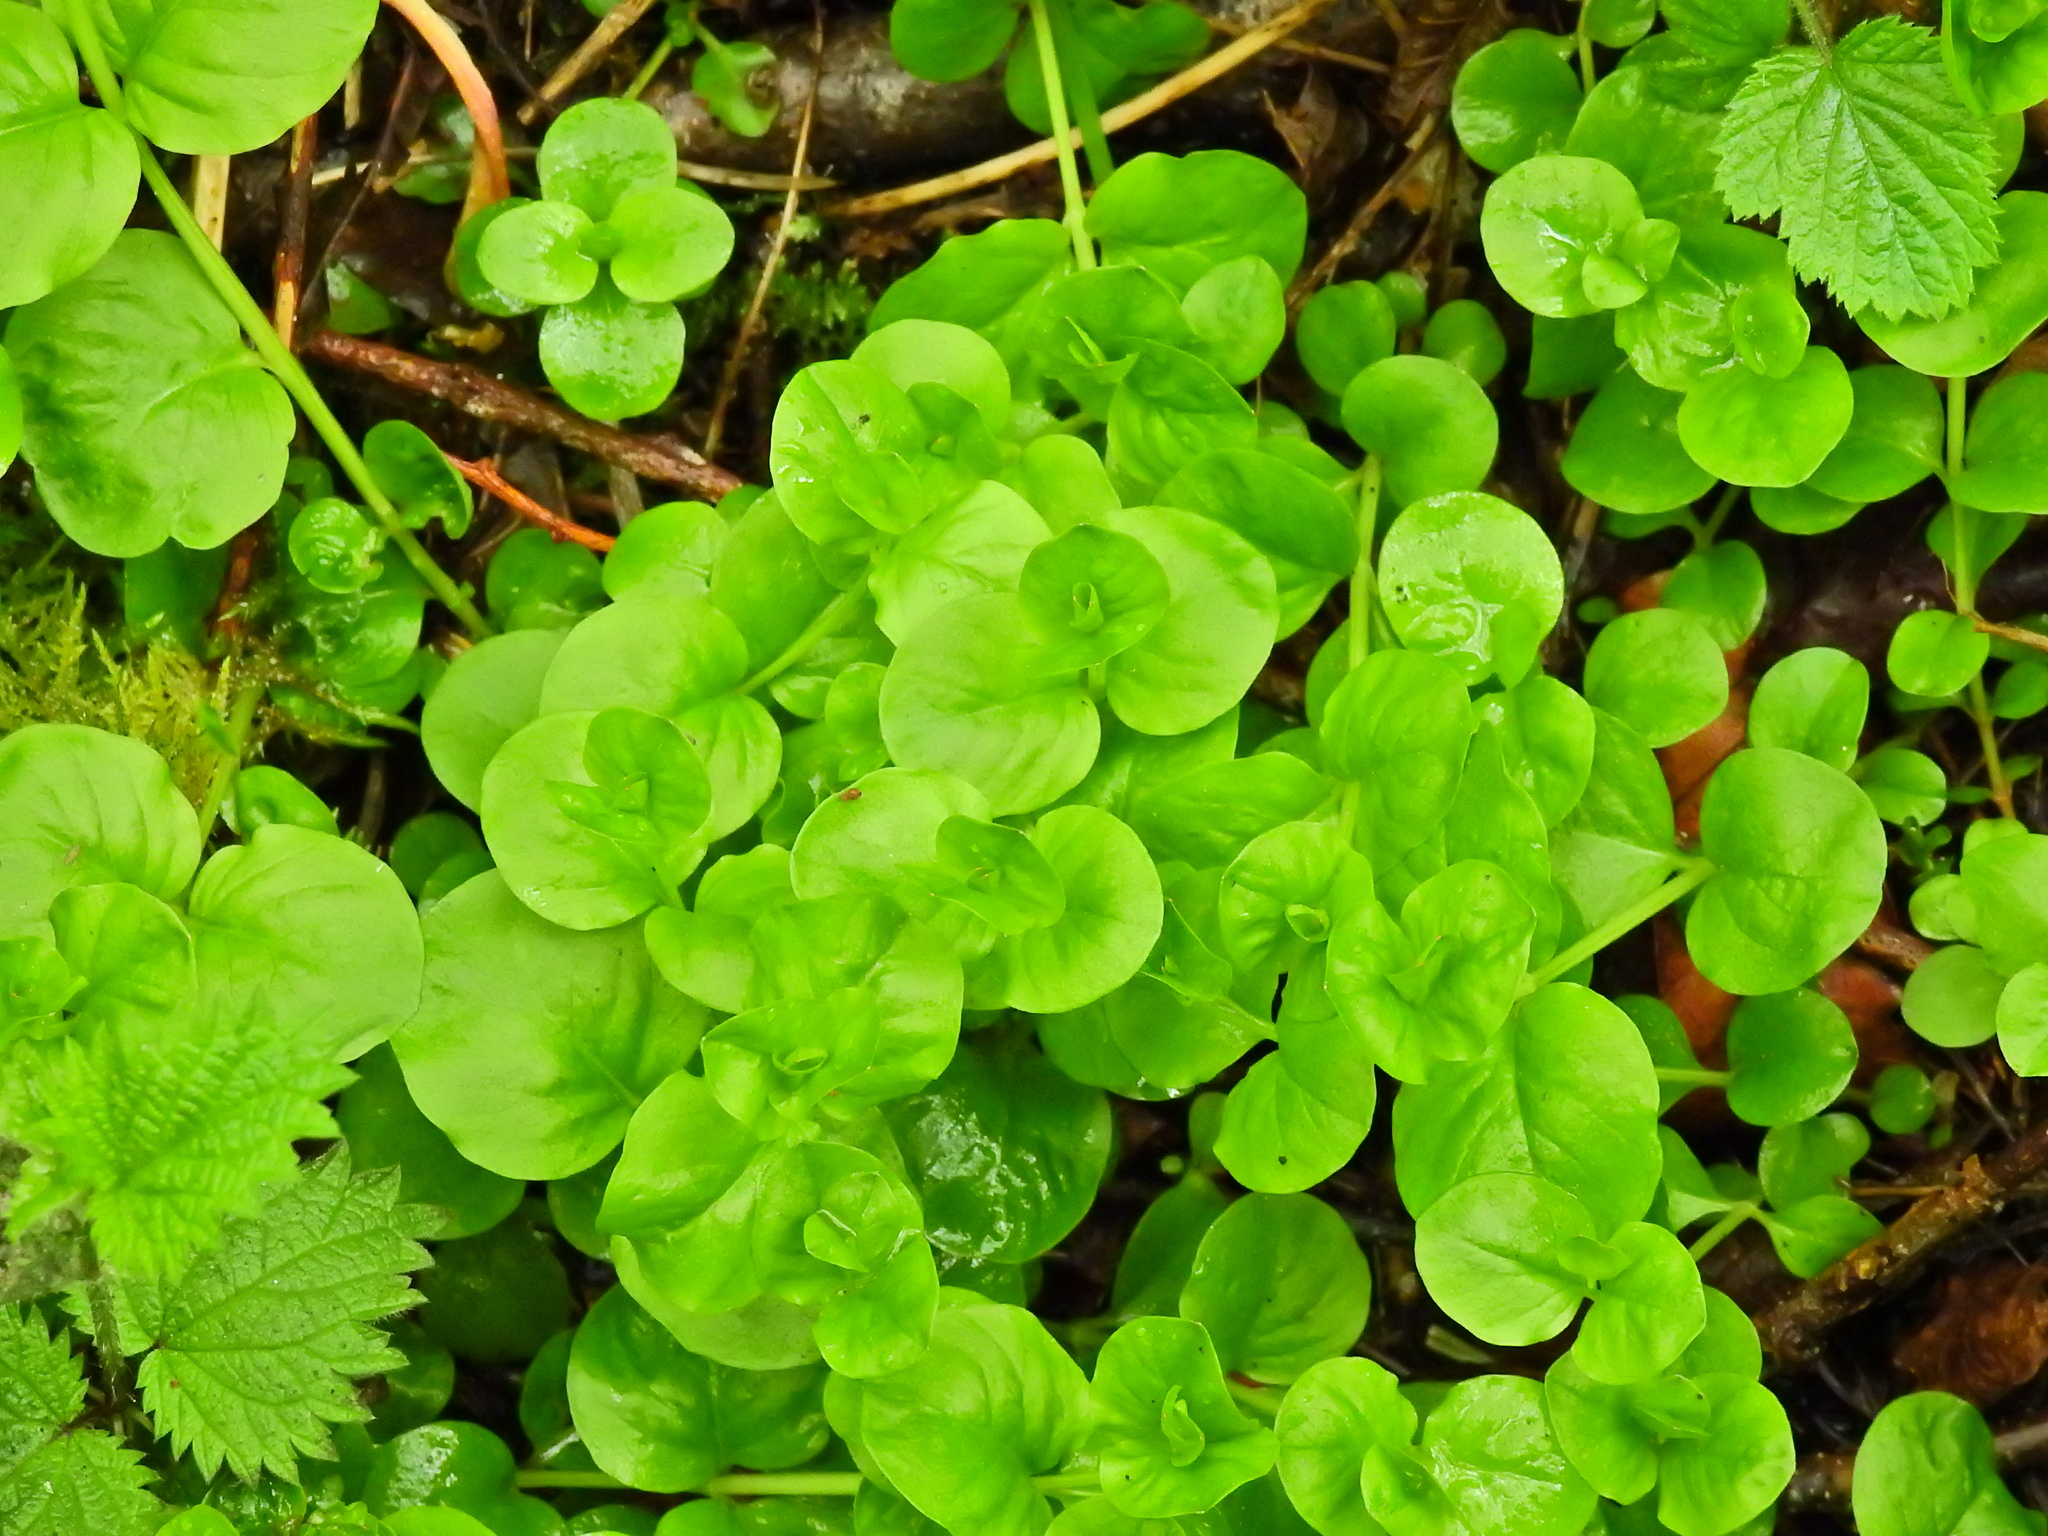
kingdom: Plantae
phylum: Tracheophyta
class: Magnoliopsida
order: Ericales
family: Primulaceae
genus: Lysimachia
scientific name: Lysimachia nummularia
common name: Moneywort
